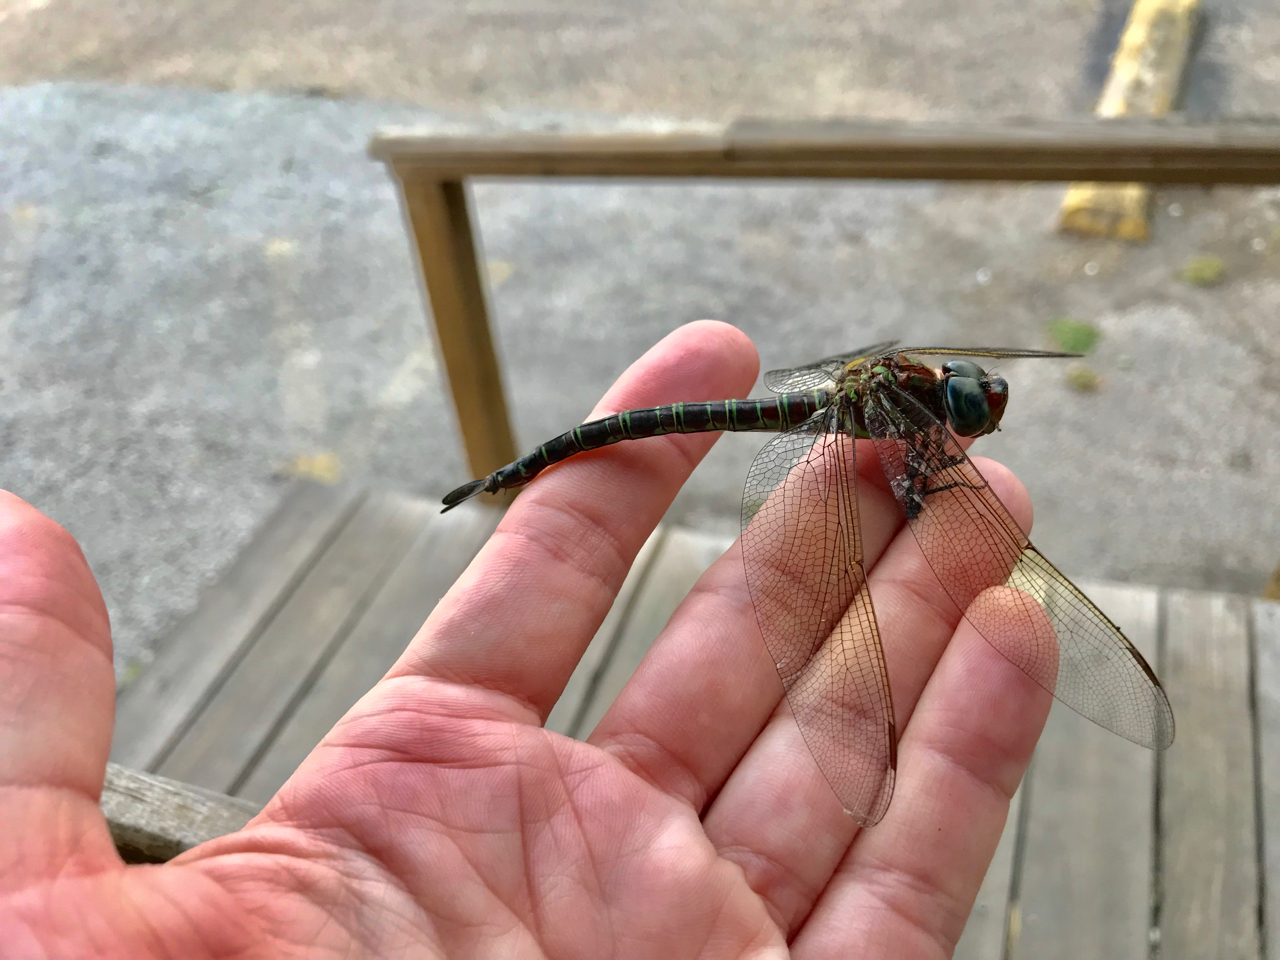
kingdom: Animalia
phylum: Arthropoda
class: Insecta
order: Odonata
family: Aeshnidae
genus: Epiaeschna
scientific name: Epiaeschna heros
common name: Swamp darner
